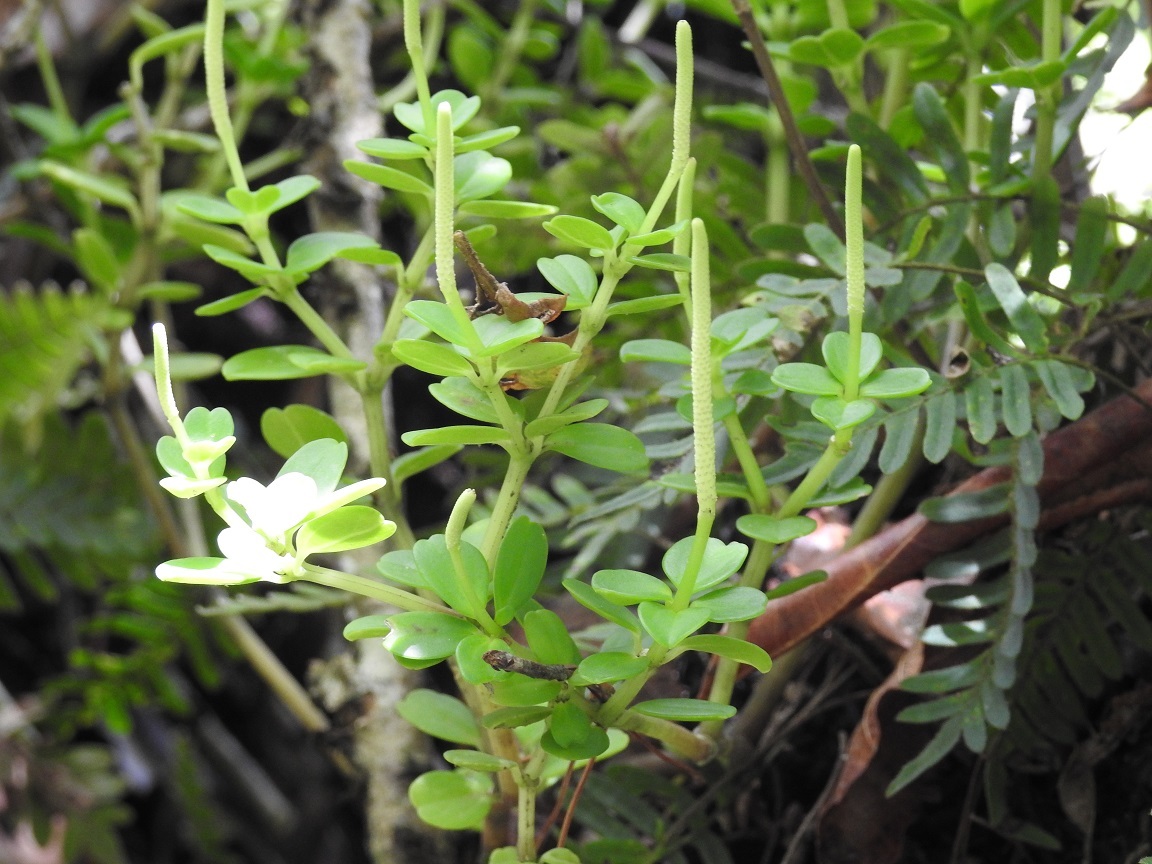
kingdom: Plantae
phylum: Tracheophyta
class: Magnoliopsida
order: Piperales
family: Piperaceae
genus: Peperomia
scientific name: Peperomia quadrifolia
